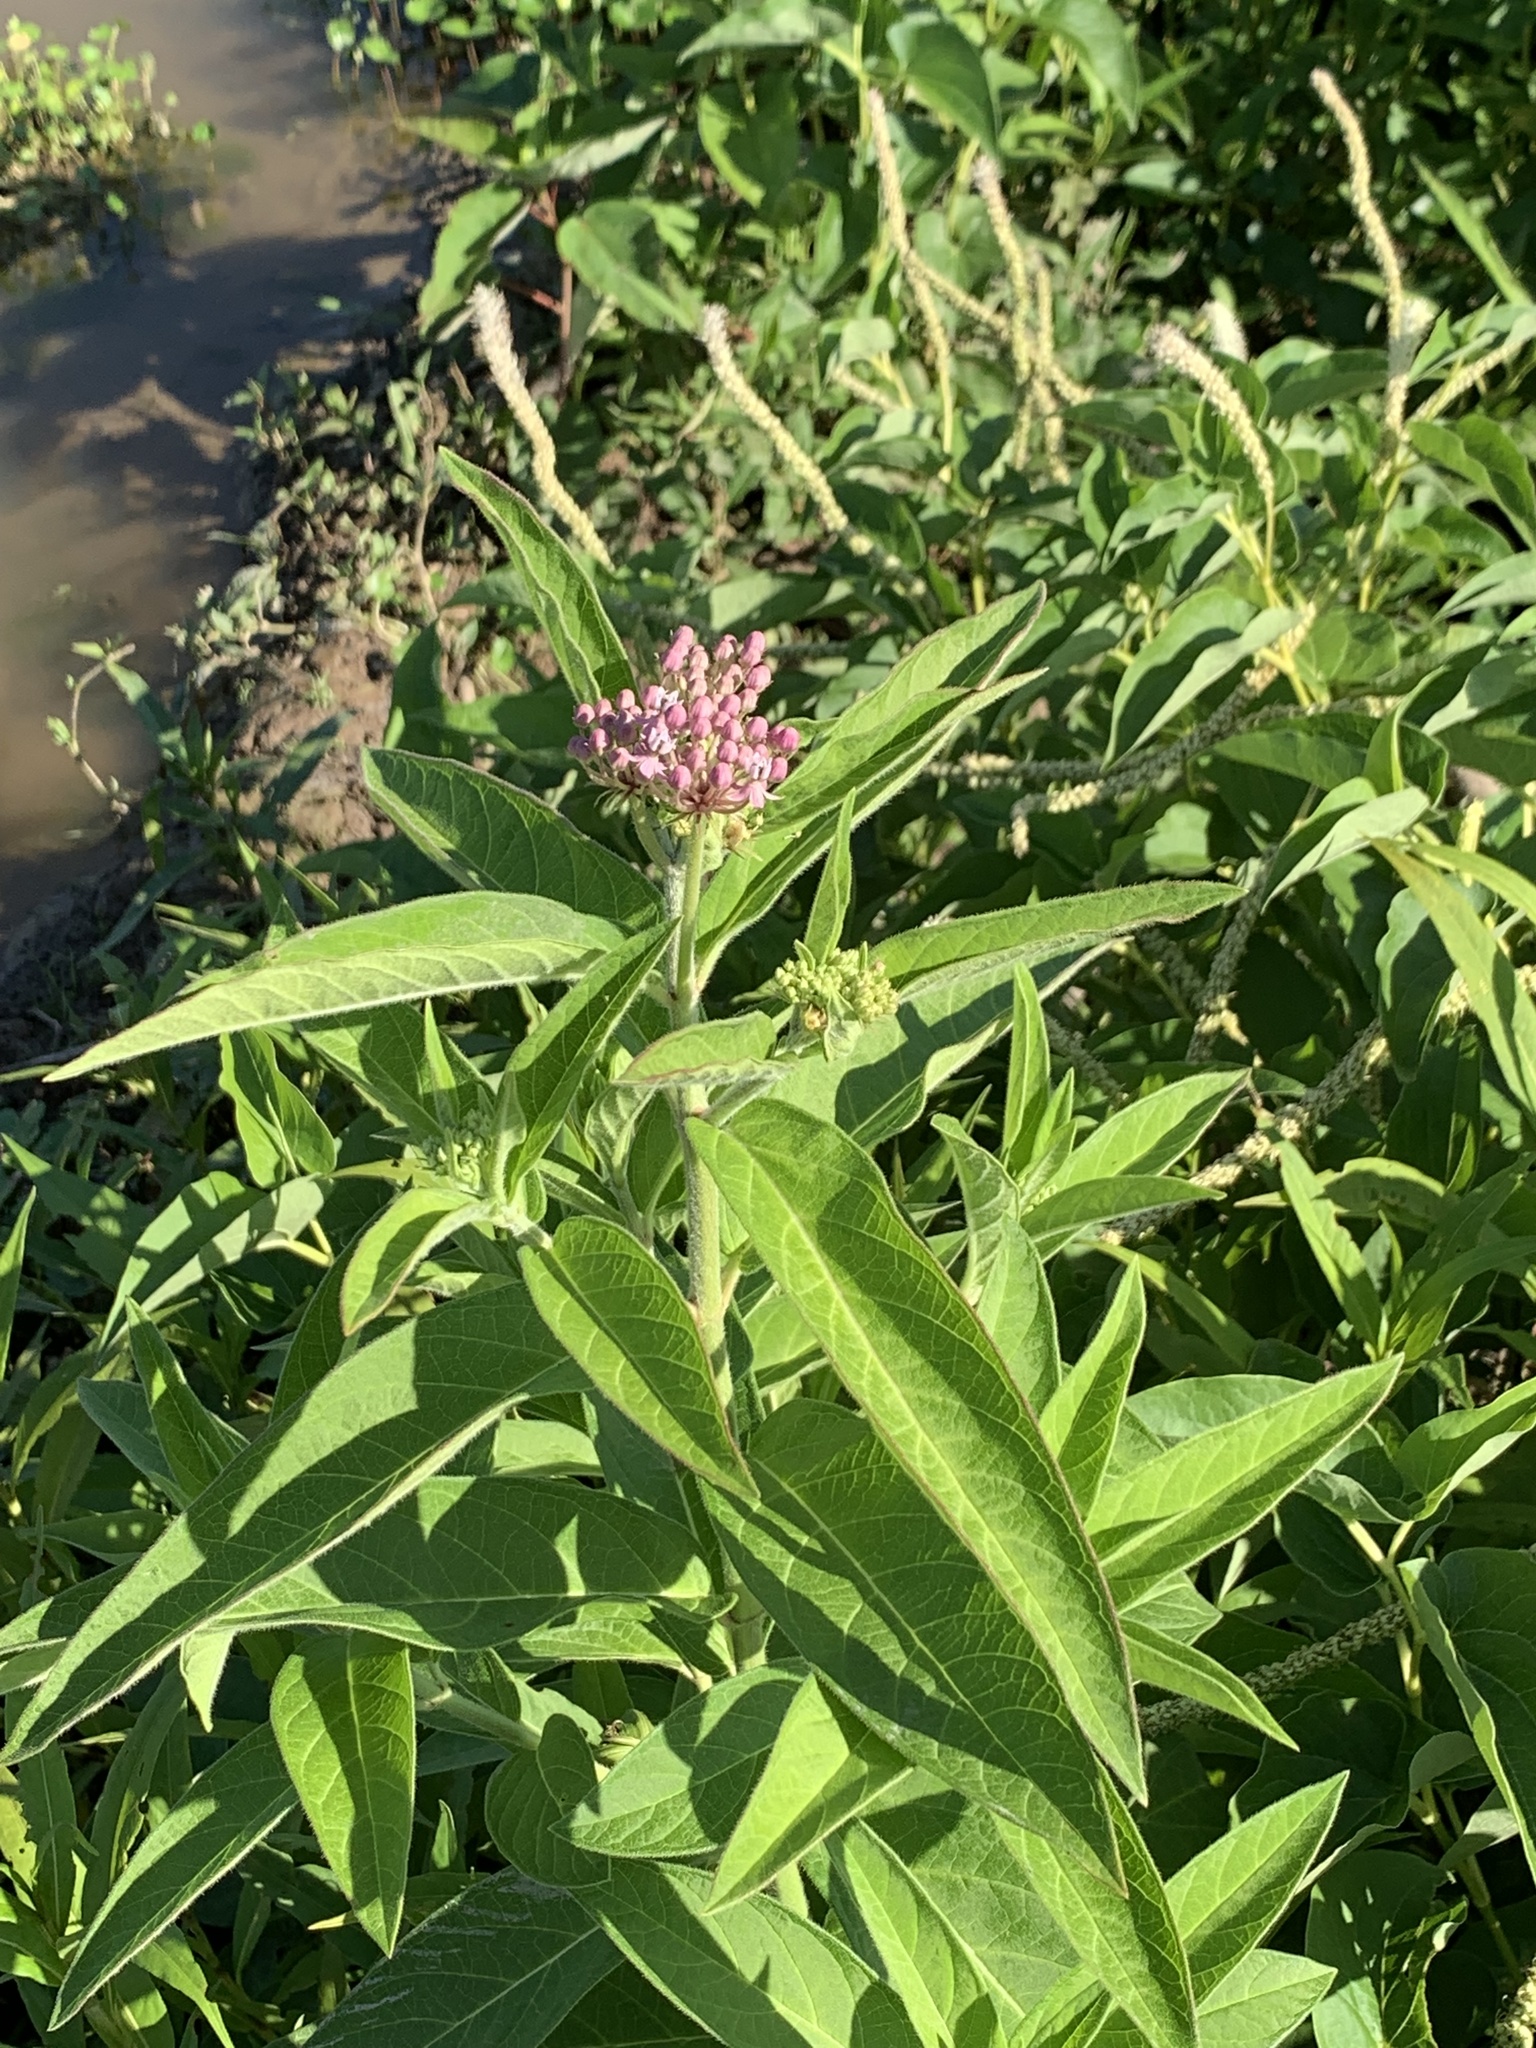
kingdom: Plantae
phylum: Tracheophyta
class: Magnoliopsida
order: Gentianales
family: Apocynaceae
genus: Asclepias
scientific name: Asclepias incarnata
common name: Swamp milkweed
